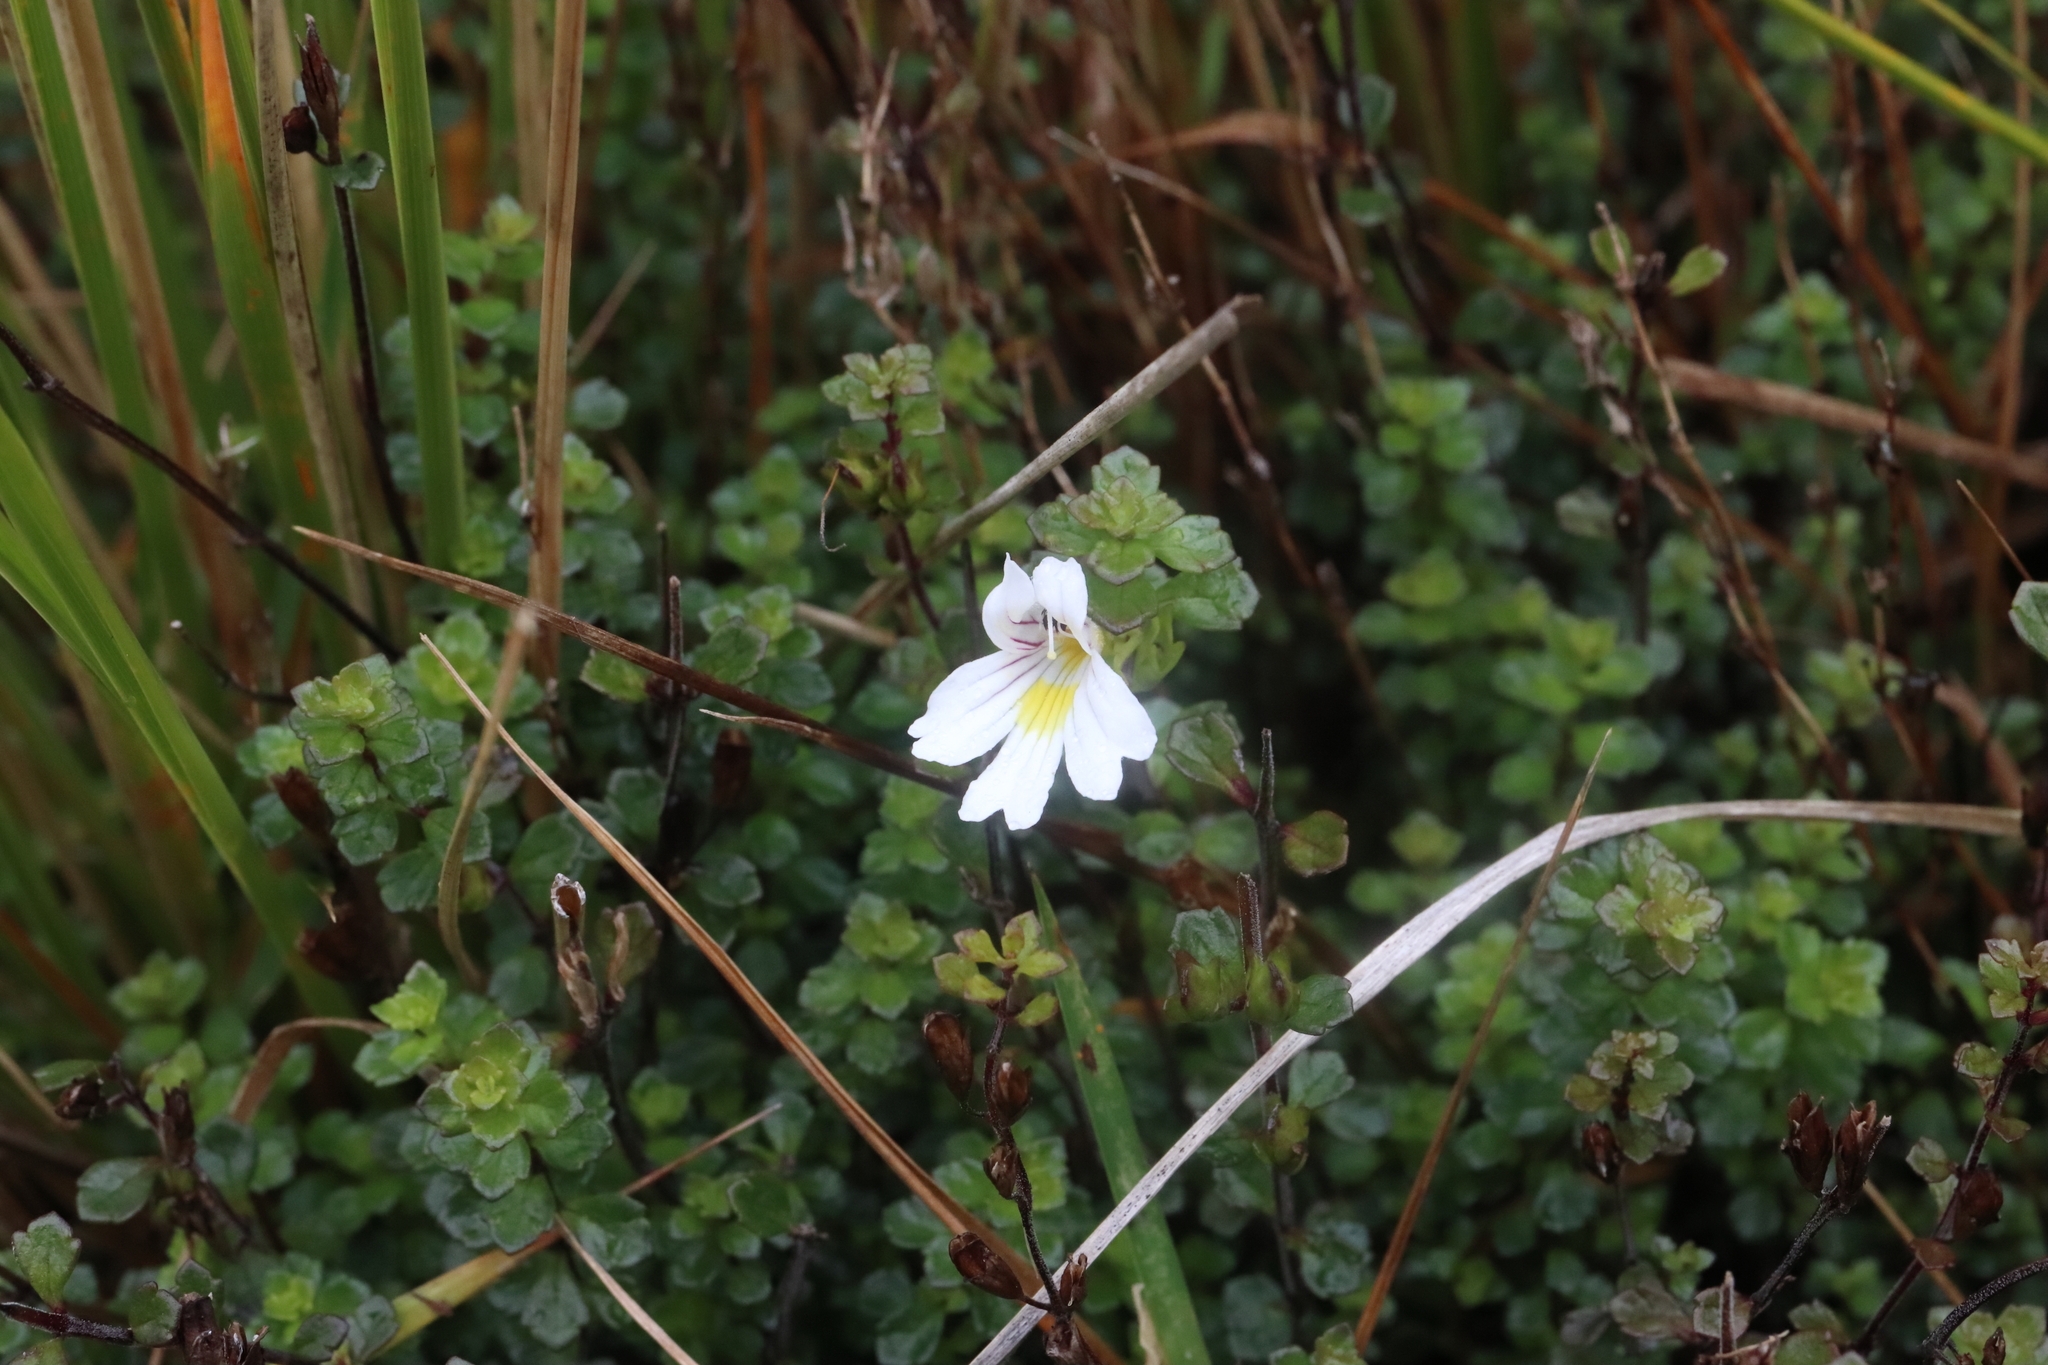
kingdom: Plantae
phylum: Tracheophyta
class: Magnoliopsida
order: Lamiales
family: Orobanchaceae
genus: Euphrasia
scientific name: Euphrasia cuneata
